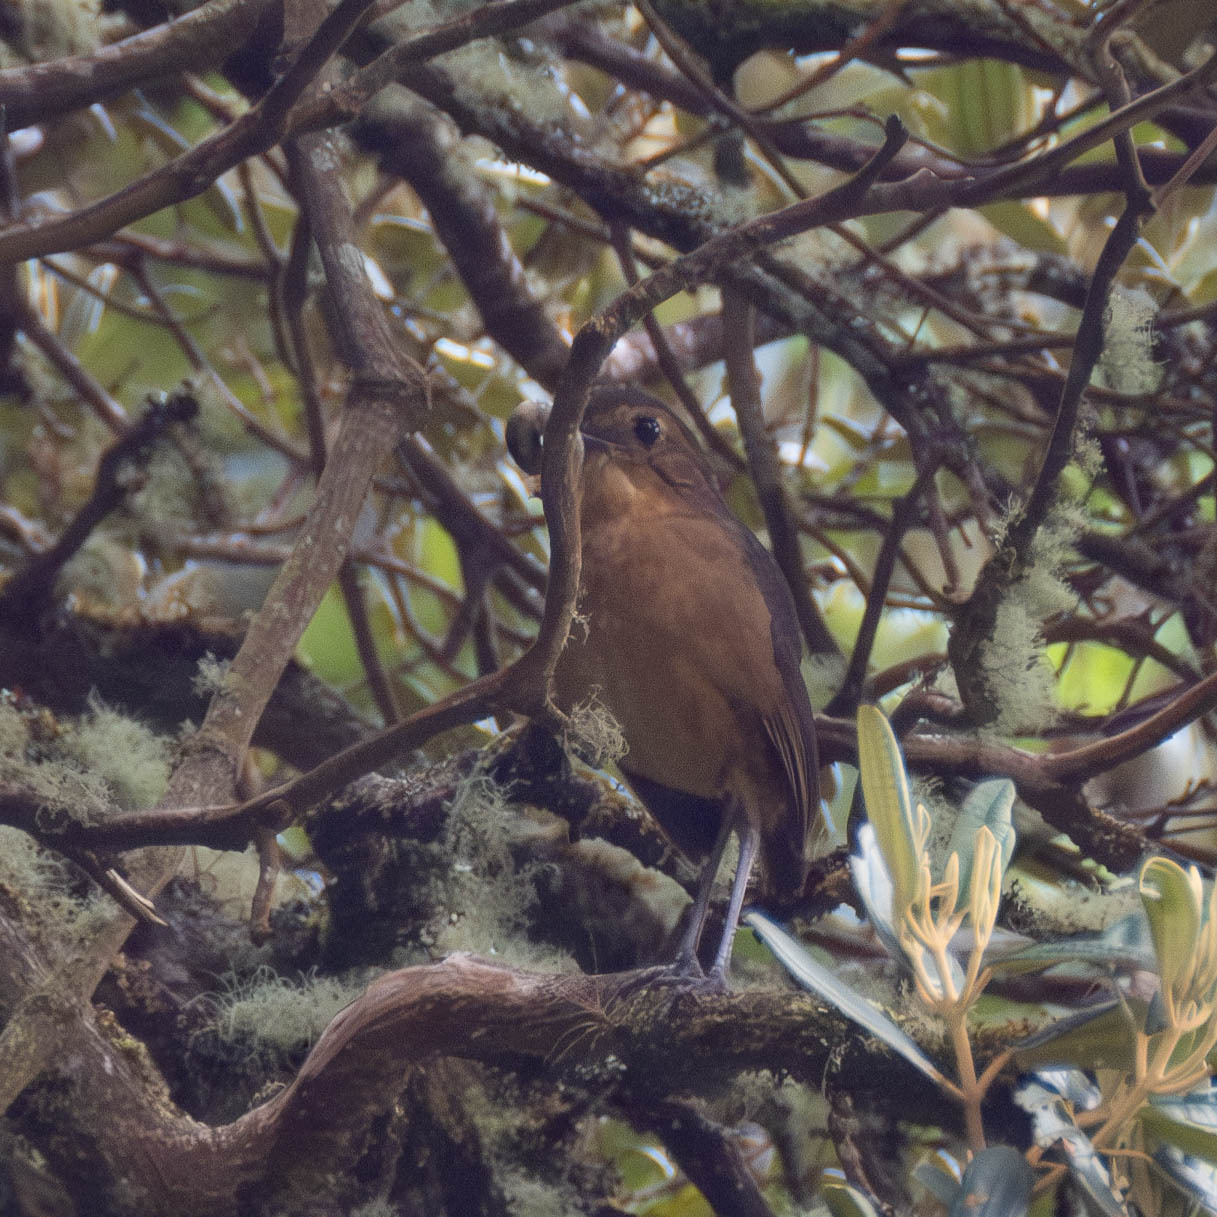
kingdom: Animalia
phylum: Chordata
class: Aves
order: Passeriformes
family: Grallariidae
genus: Grallaria
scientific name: Grallaria quitensis
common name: Tawny antpitta
